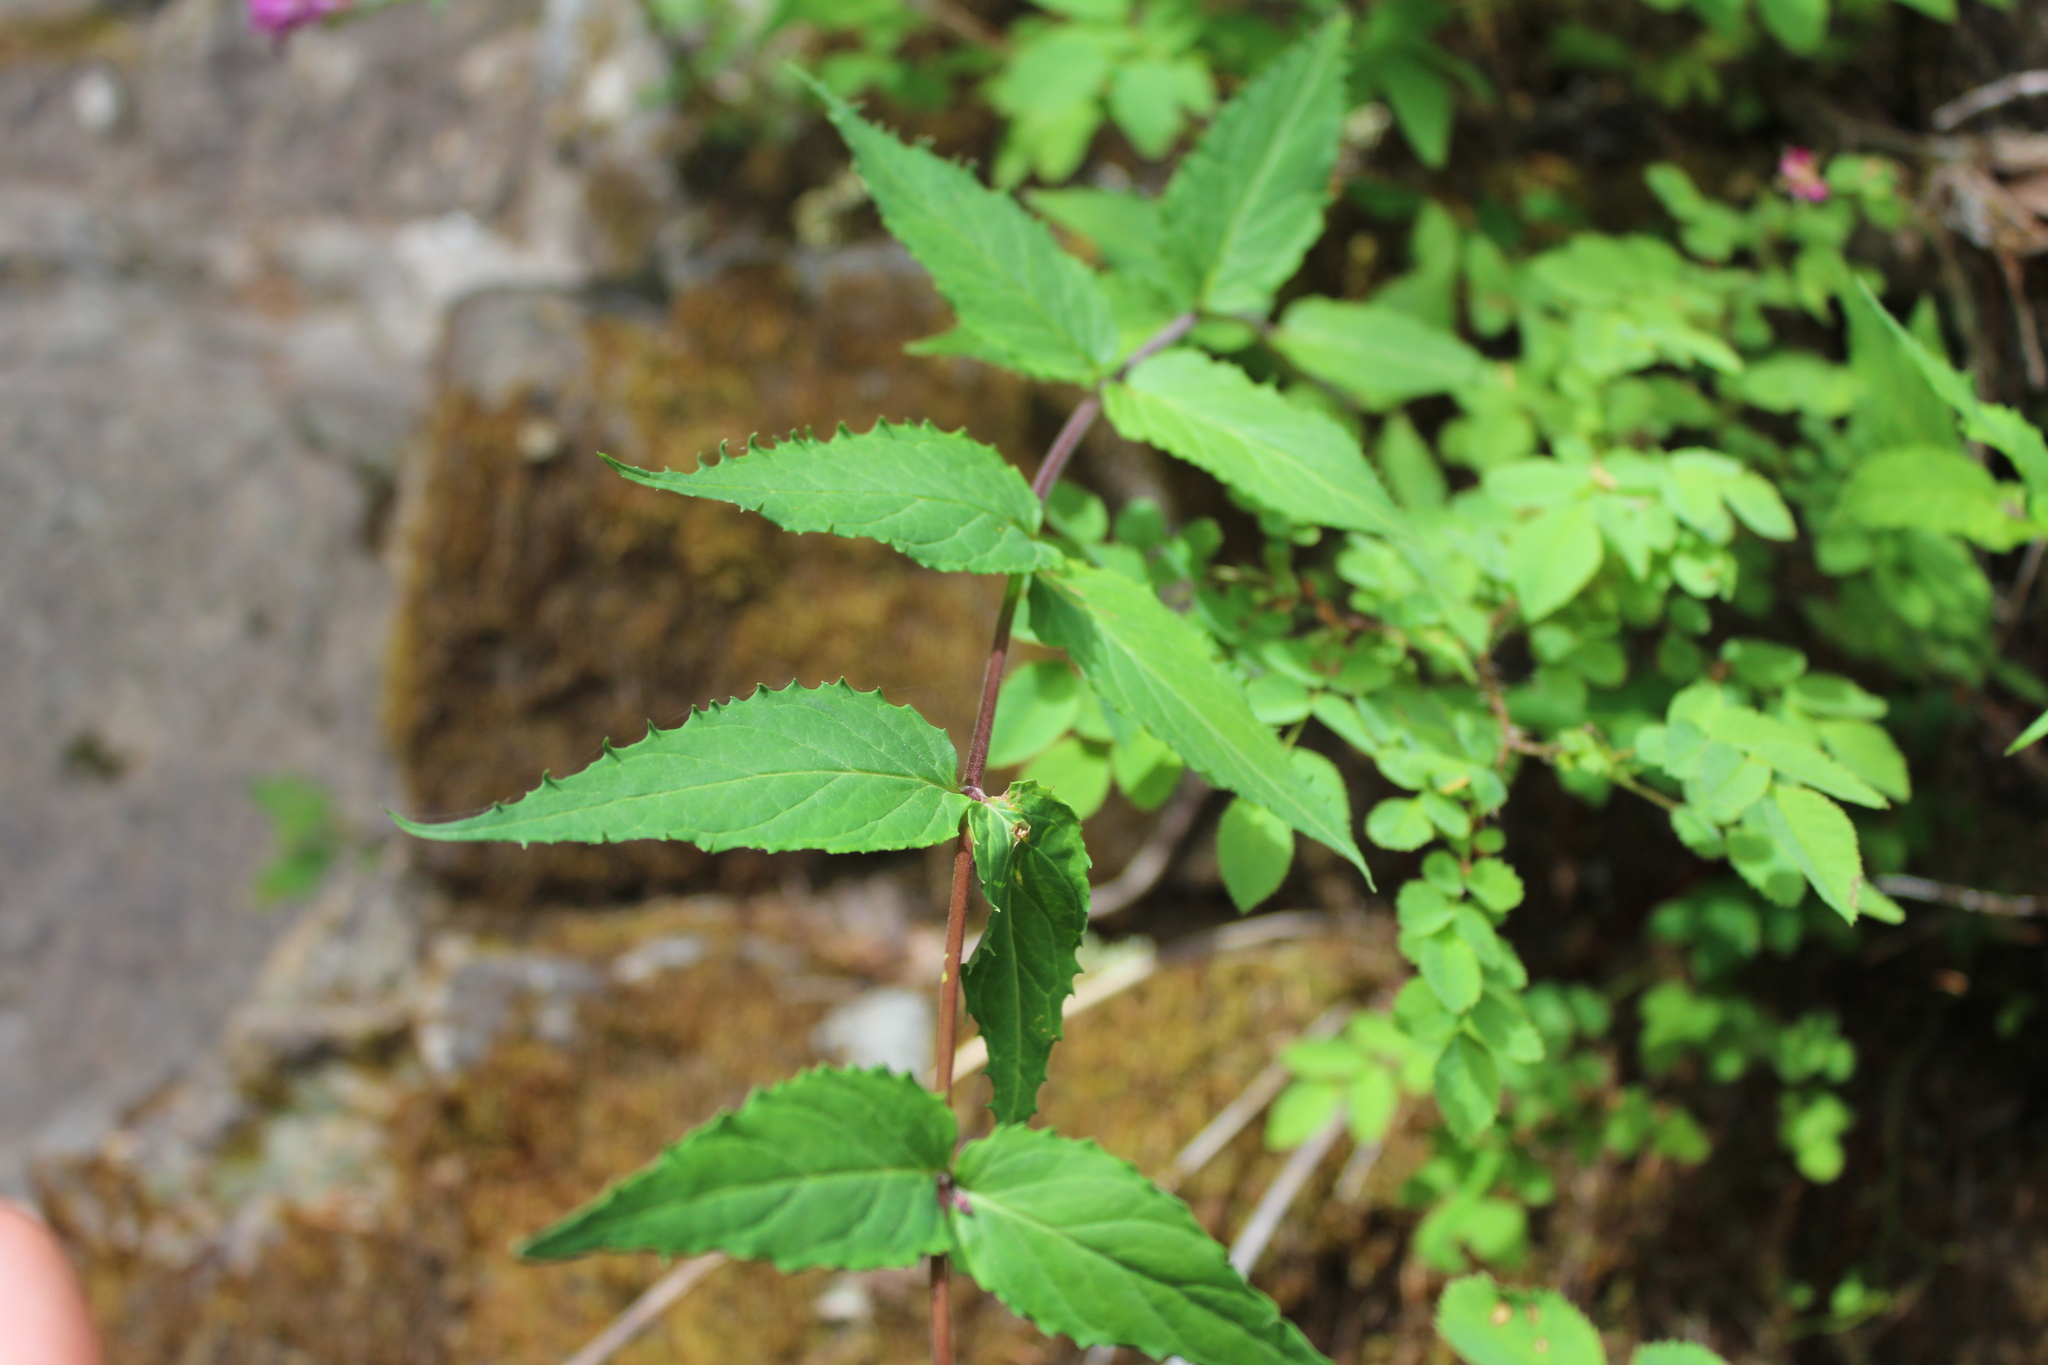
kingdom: Plantae
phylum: Tracheophyta
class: Magnoliopsida
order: Lamiales
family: Plantaginaceae
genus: Nothochelone
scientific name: Nothochelone nemorosa
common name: Woodland beardtongue
